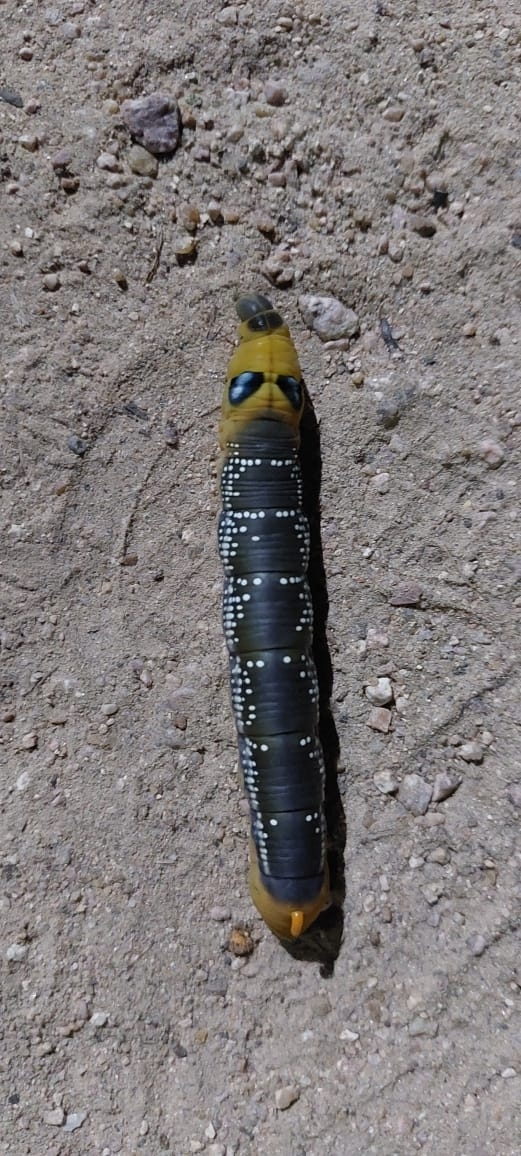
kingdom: Animalia
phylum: Arthropoda
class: Insecta
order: Lepidoptera
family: Sphingidae
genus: Daphnis
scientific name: Daphnis nerii
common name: Oleander hawk-moth
